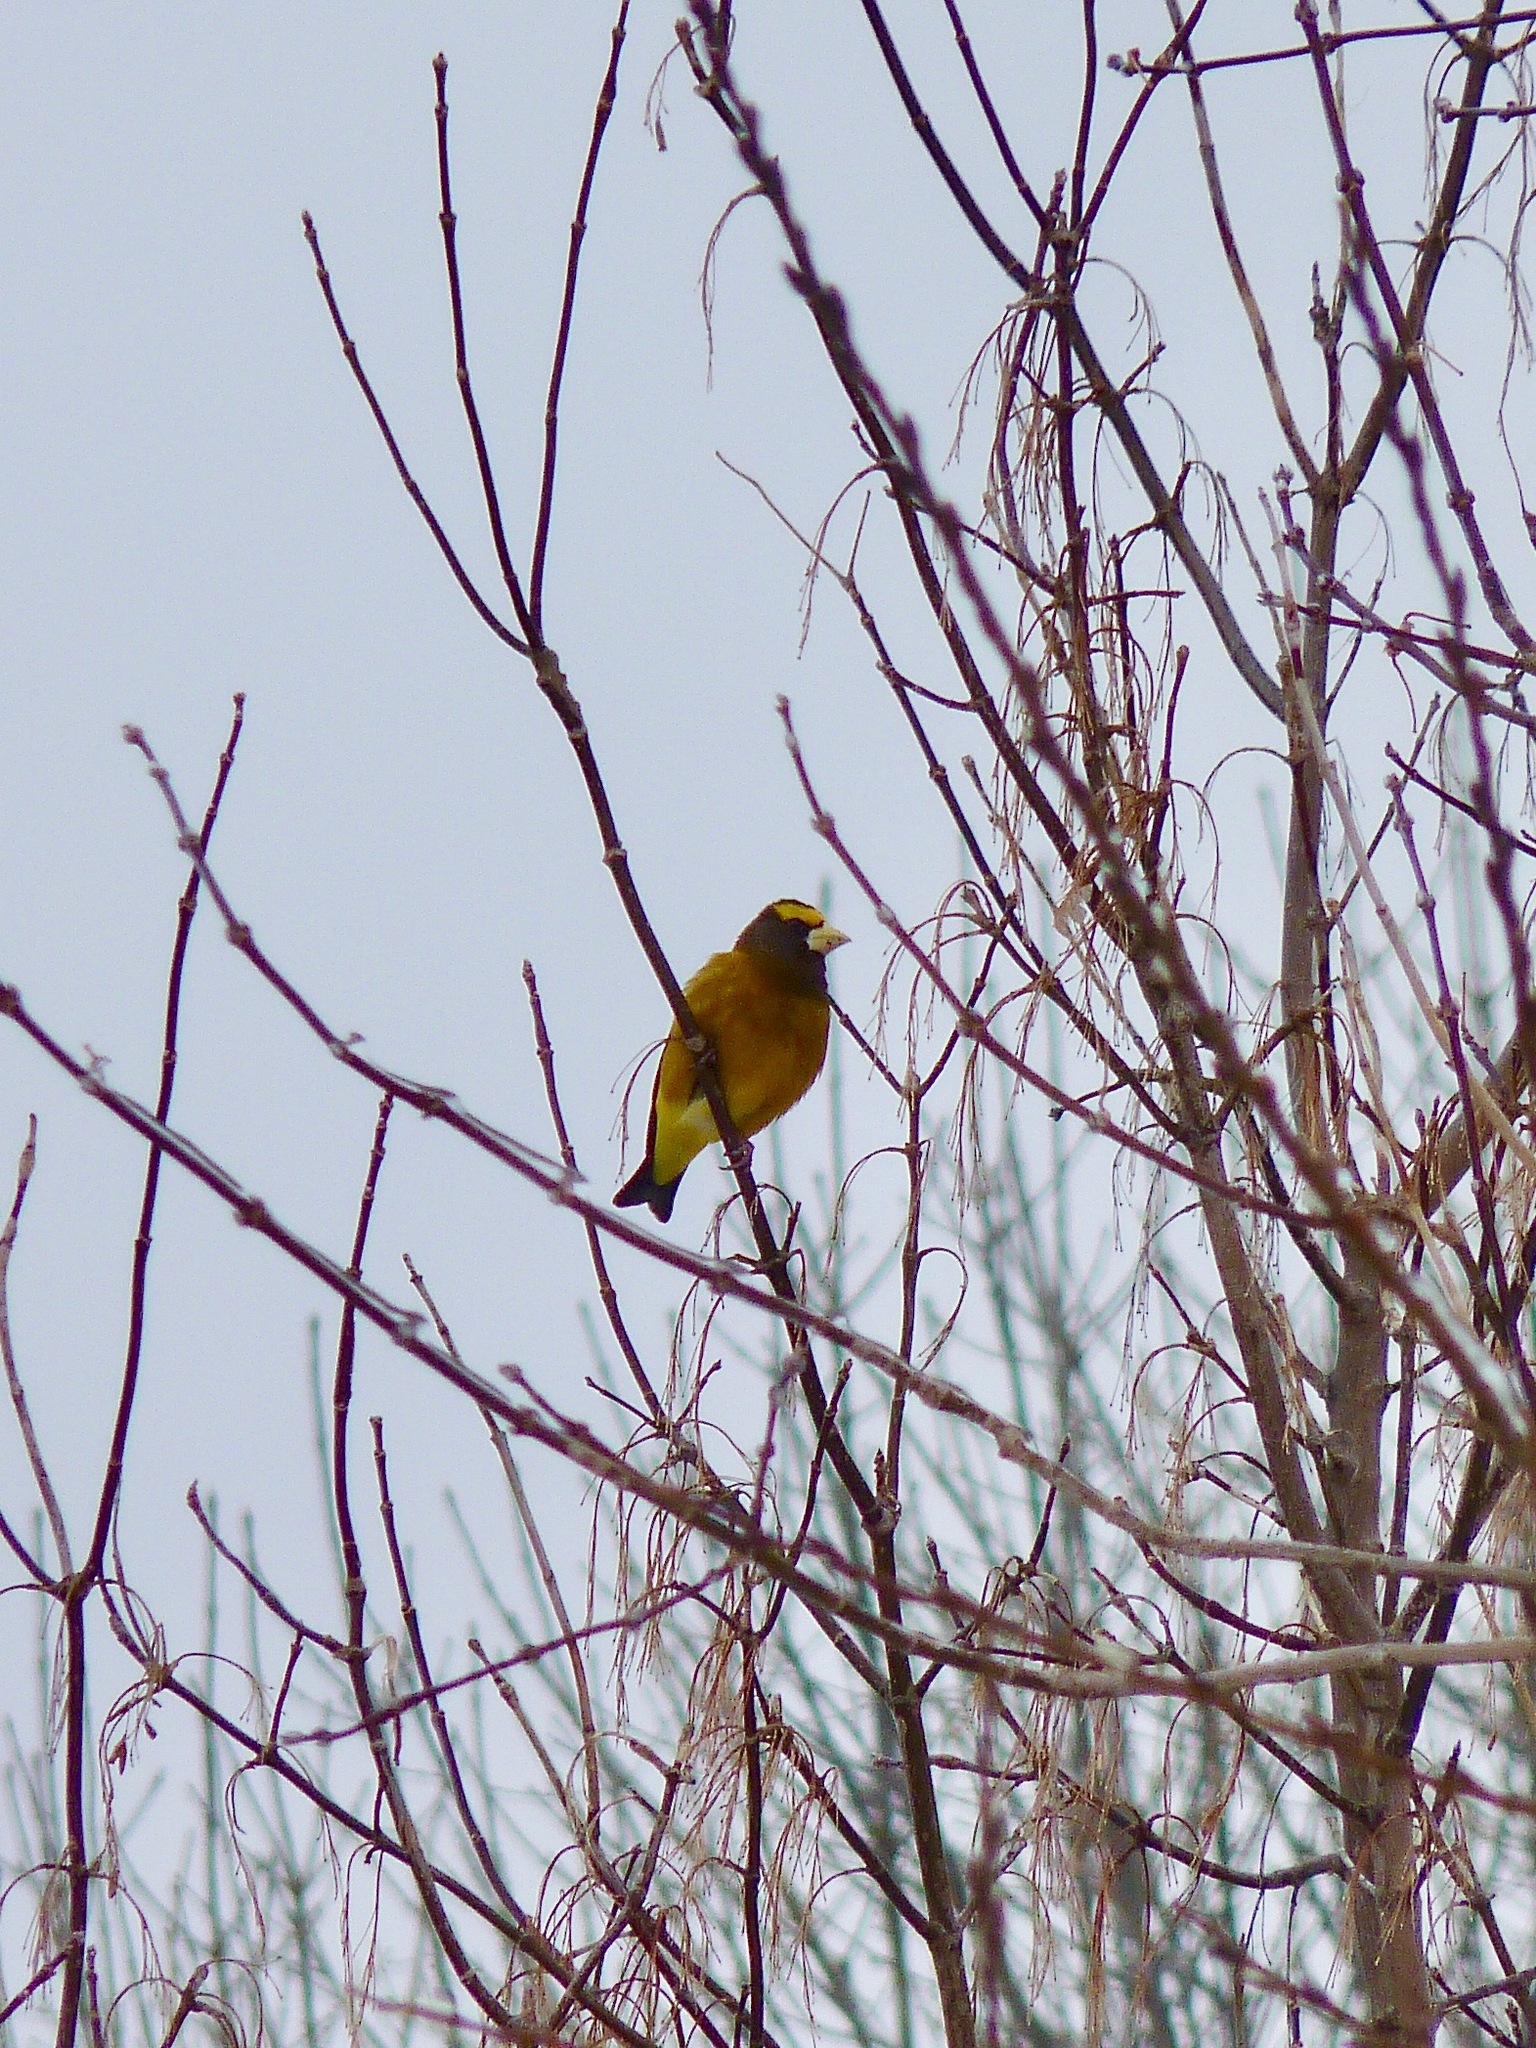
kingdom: Animalia
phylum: Chordata
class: Aves
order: Passeriformes
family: Fringillidae
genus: Hesperiphona
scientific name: Hesperiphona vespertina
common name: Evening grosbeak
